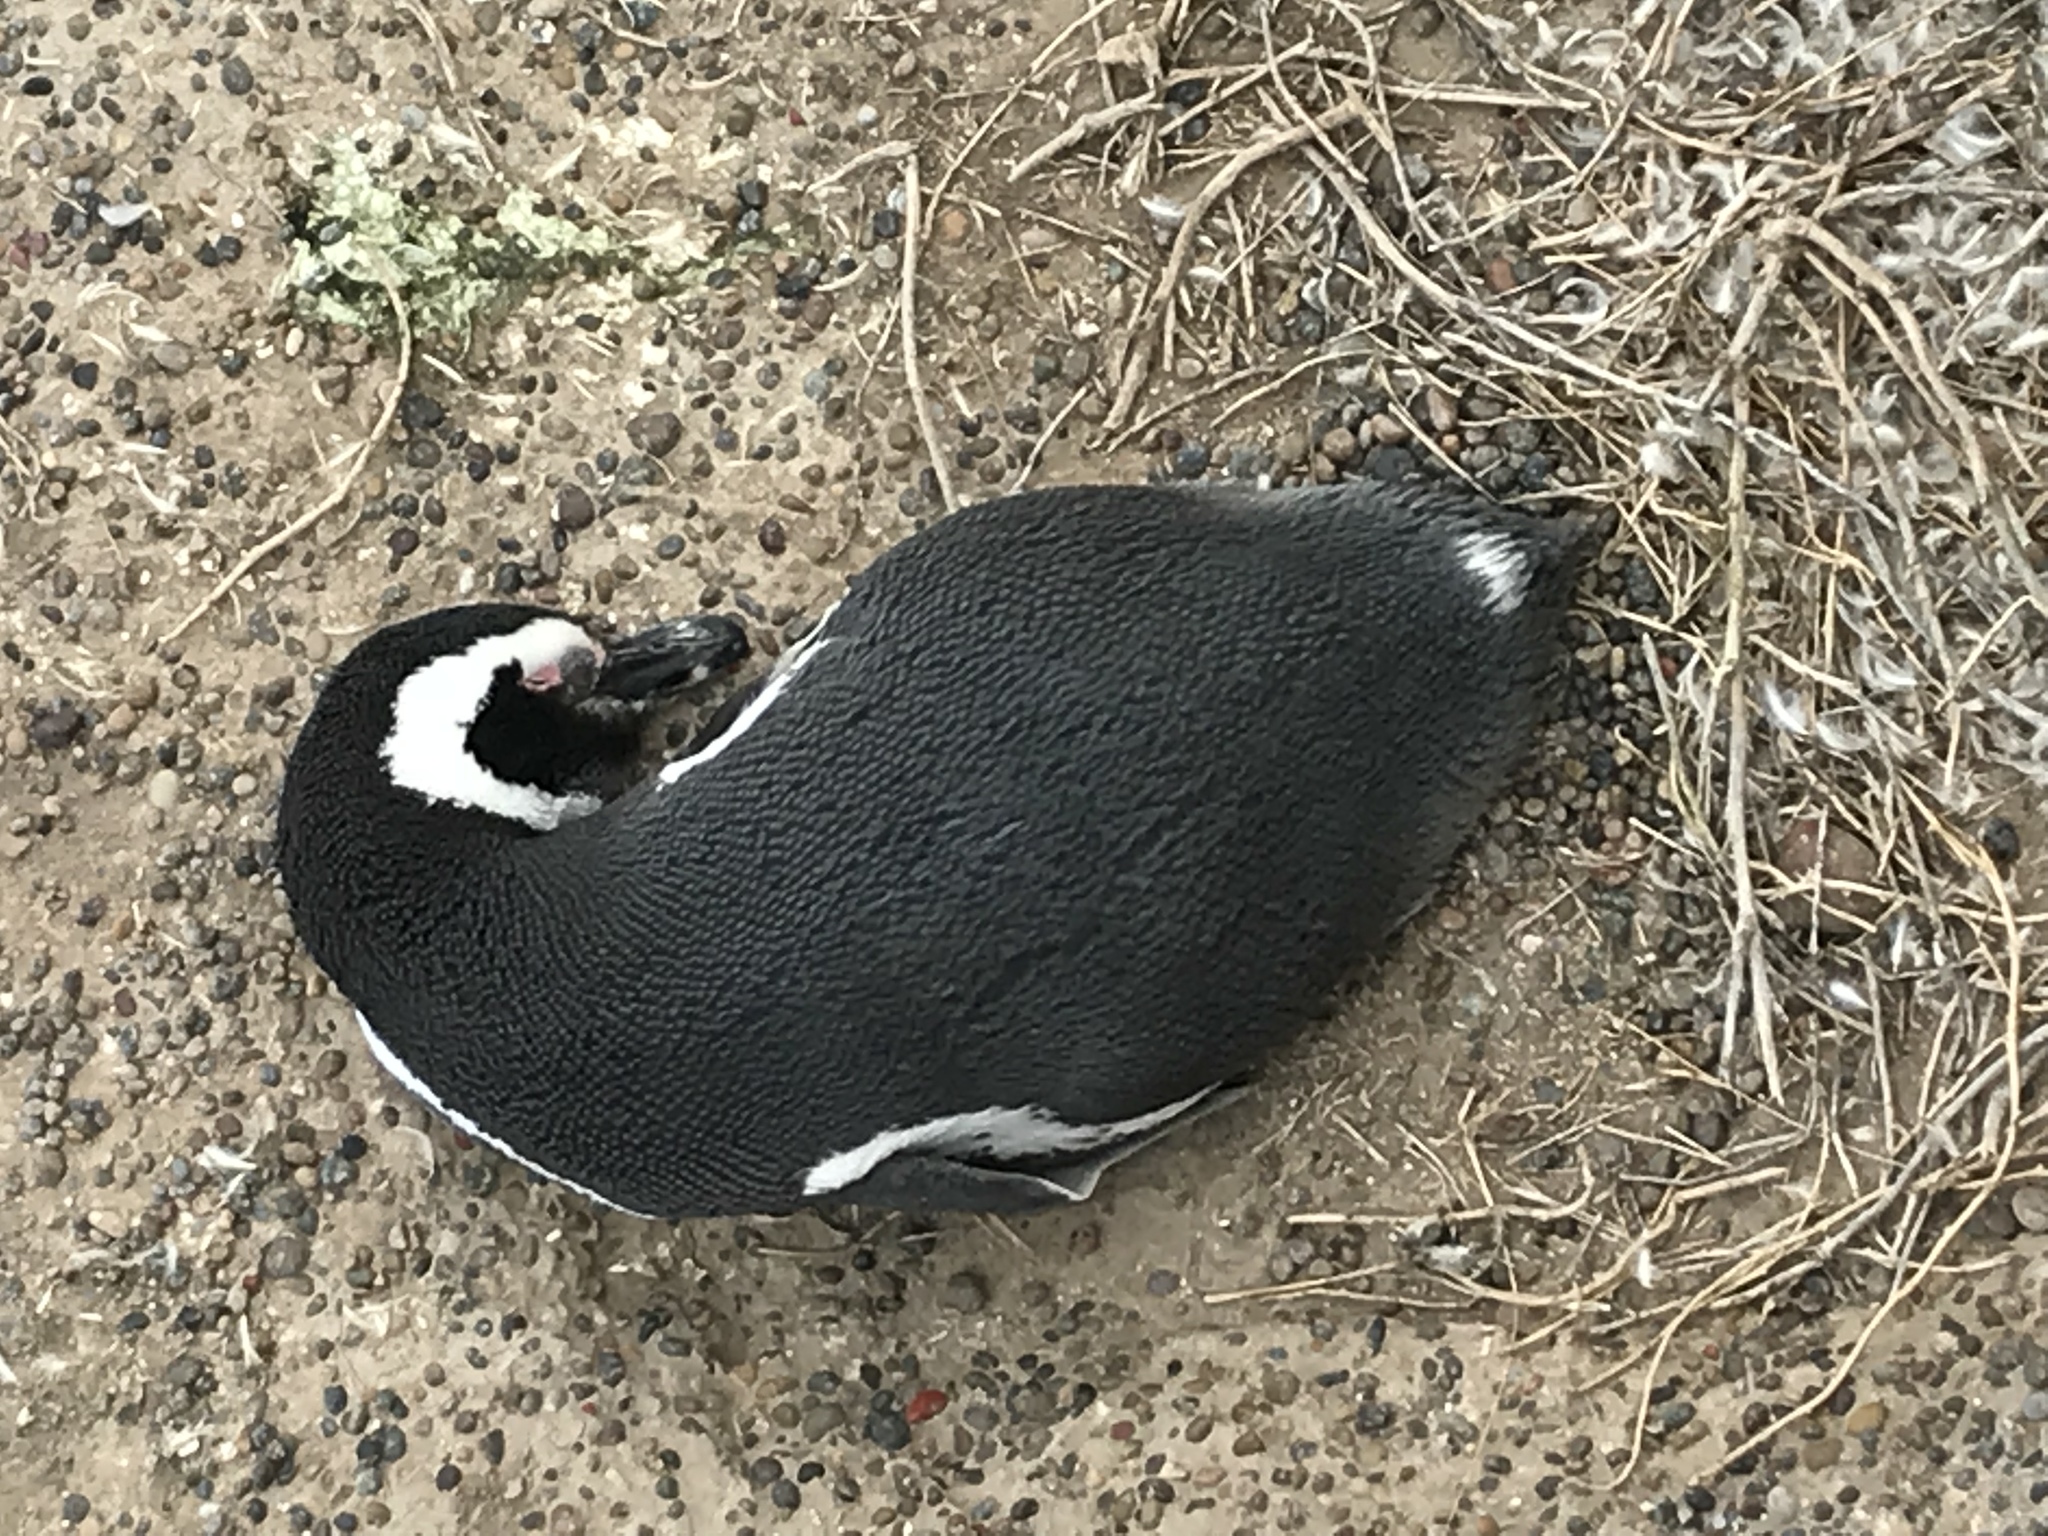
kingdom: Animalia
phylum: Chordata
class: Aves
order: Sphenisciformes
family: Spheniscidae
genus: Spheniscus
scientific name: Spheniscus magellanicus
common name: Magellanic penguin
